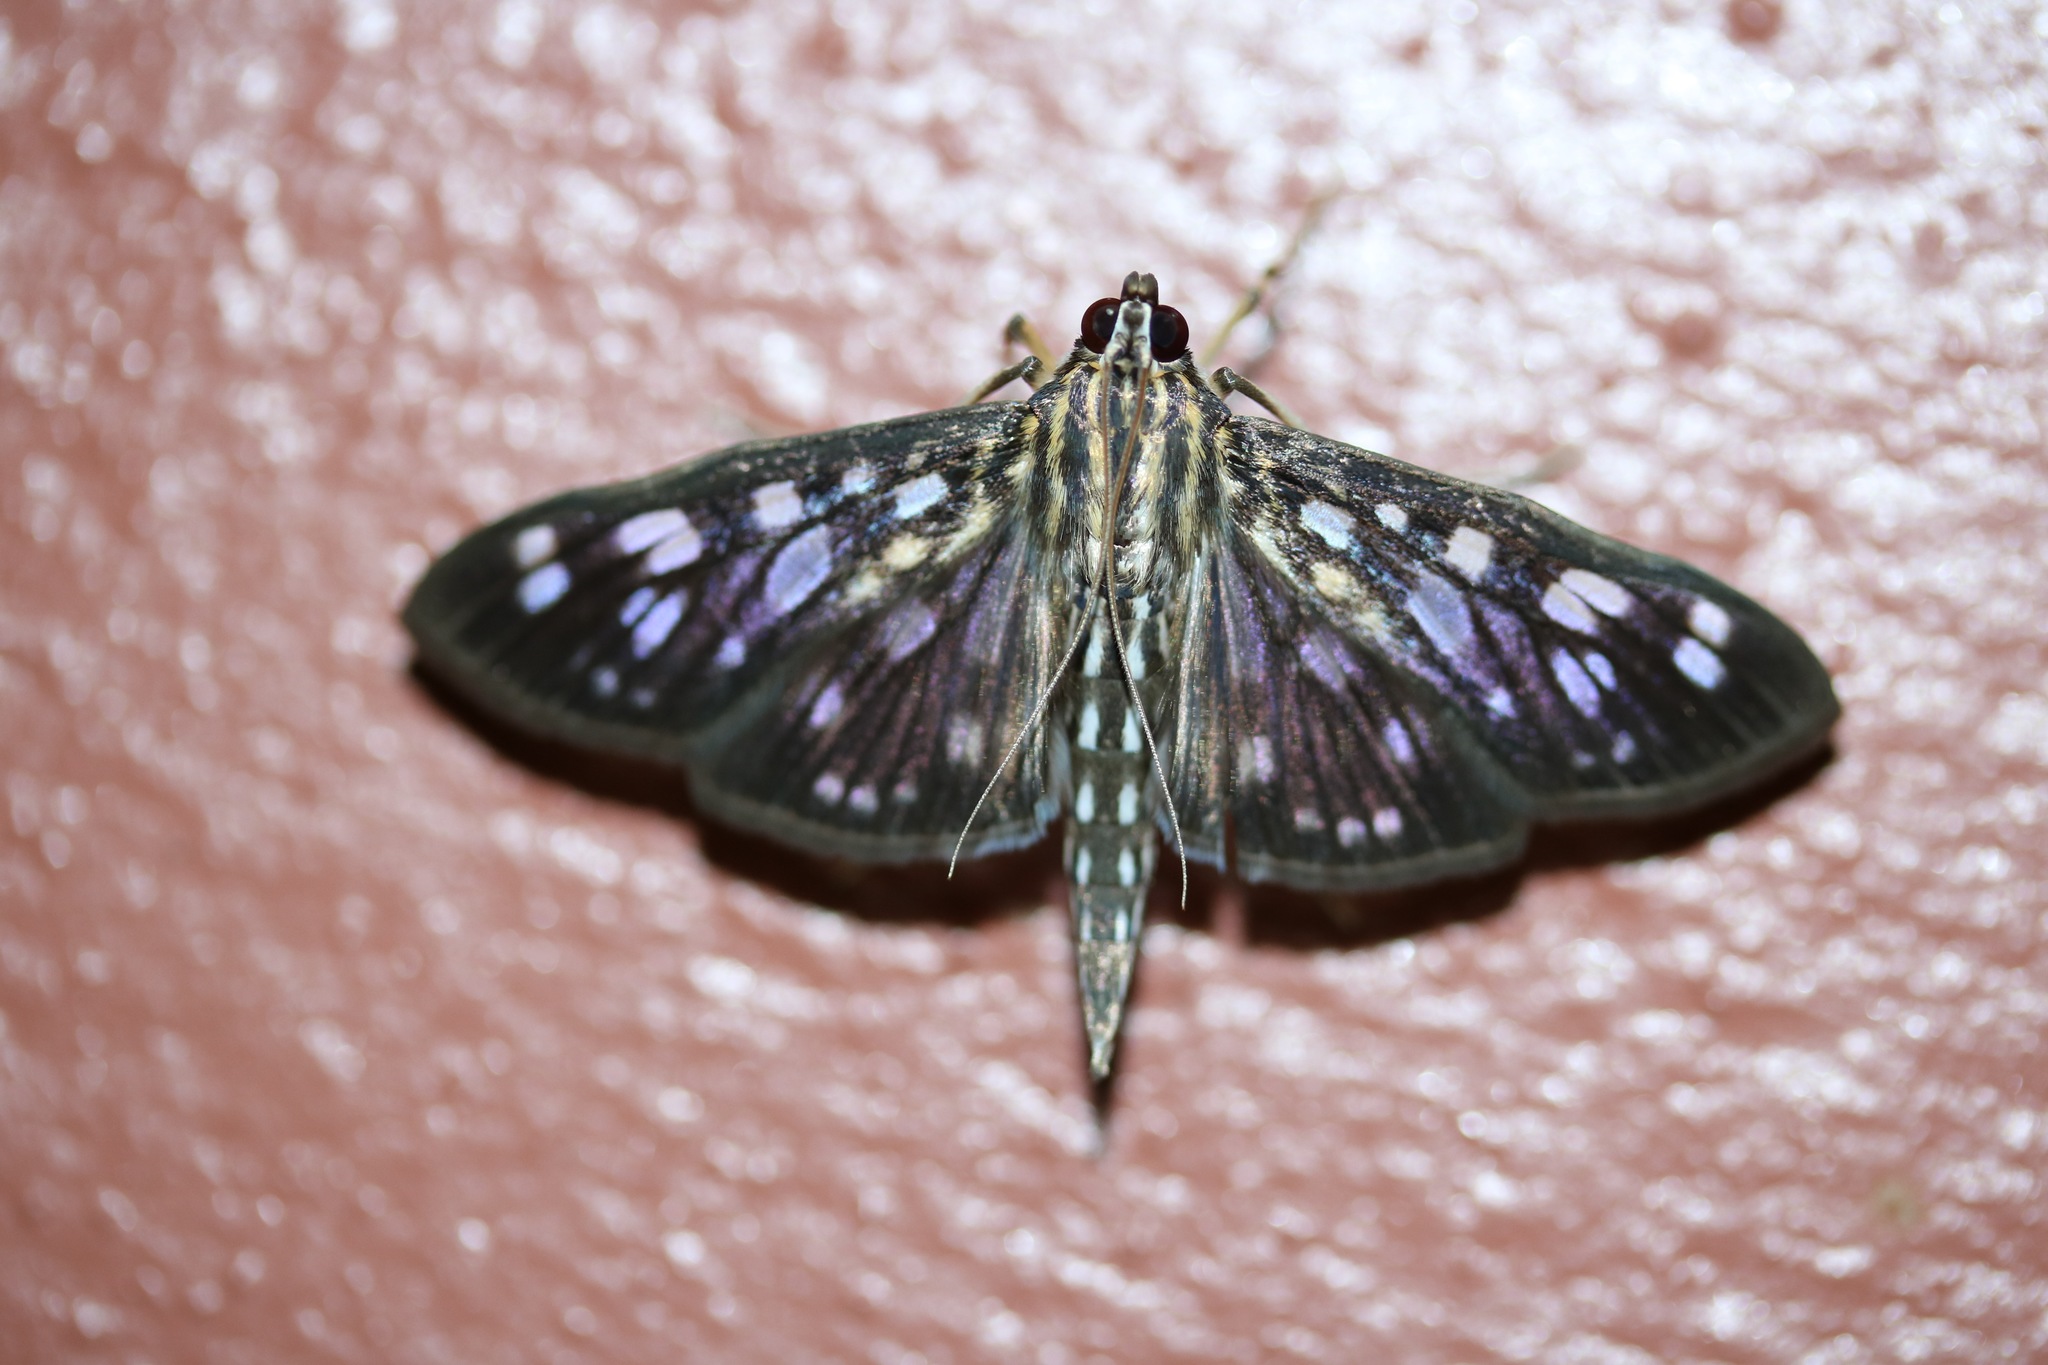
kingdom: Animalia
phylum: Arthropoda
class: Insecta
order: Lepidoptera
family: Crambidae
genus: Pygospila
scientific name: Pygospila tyres
